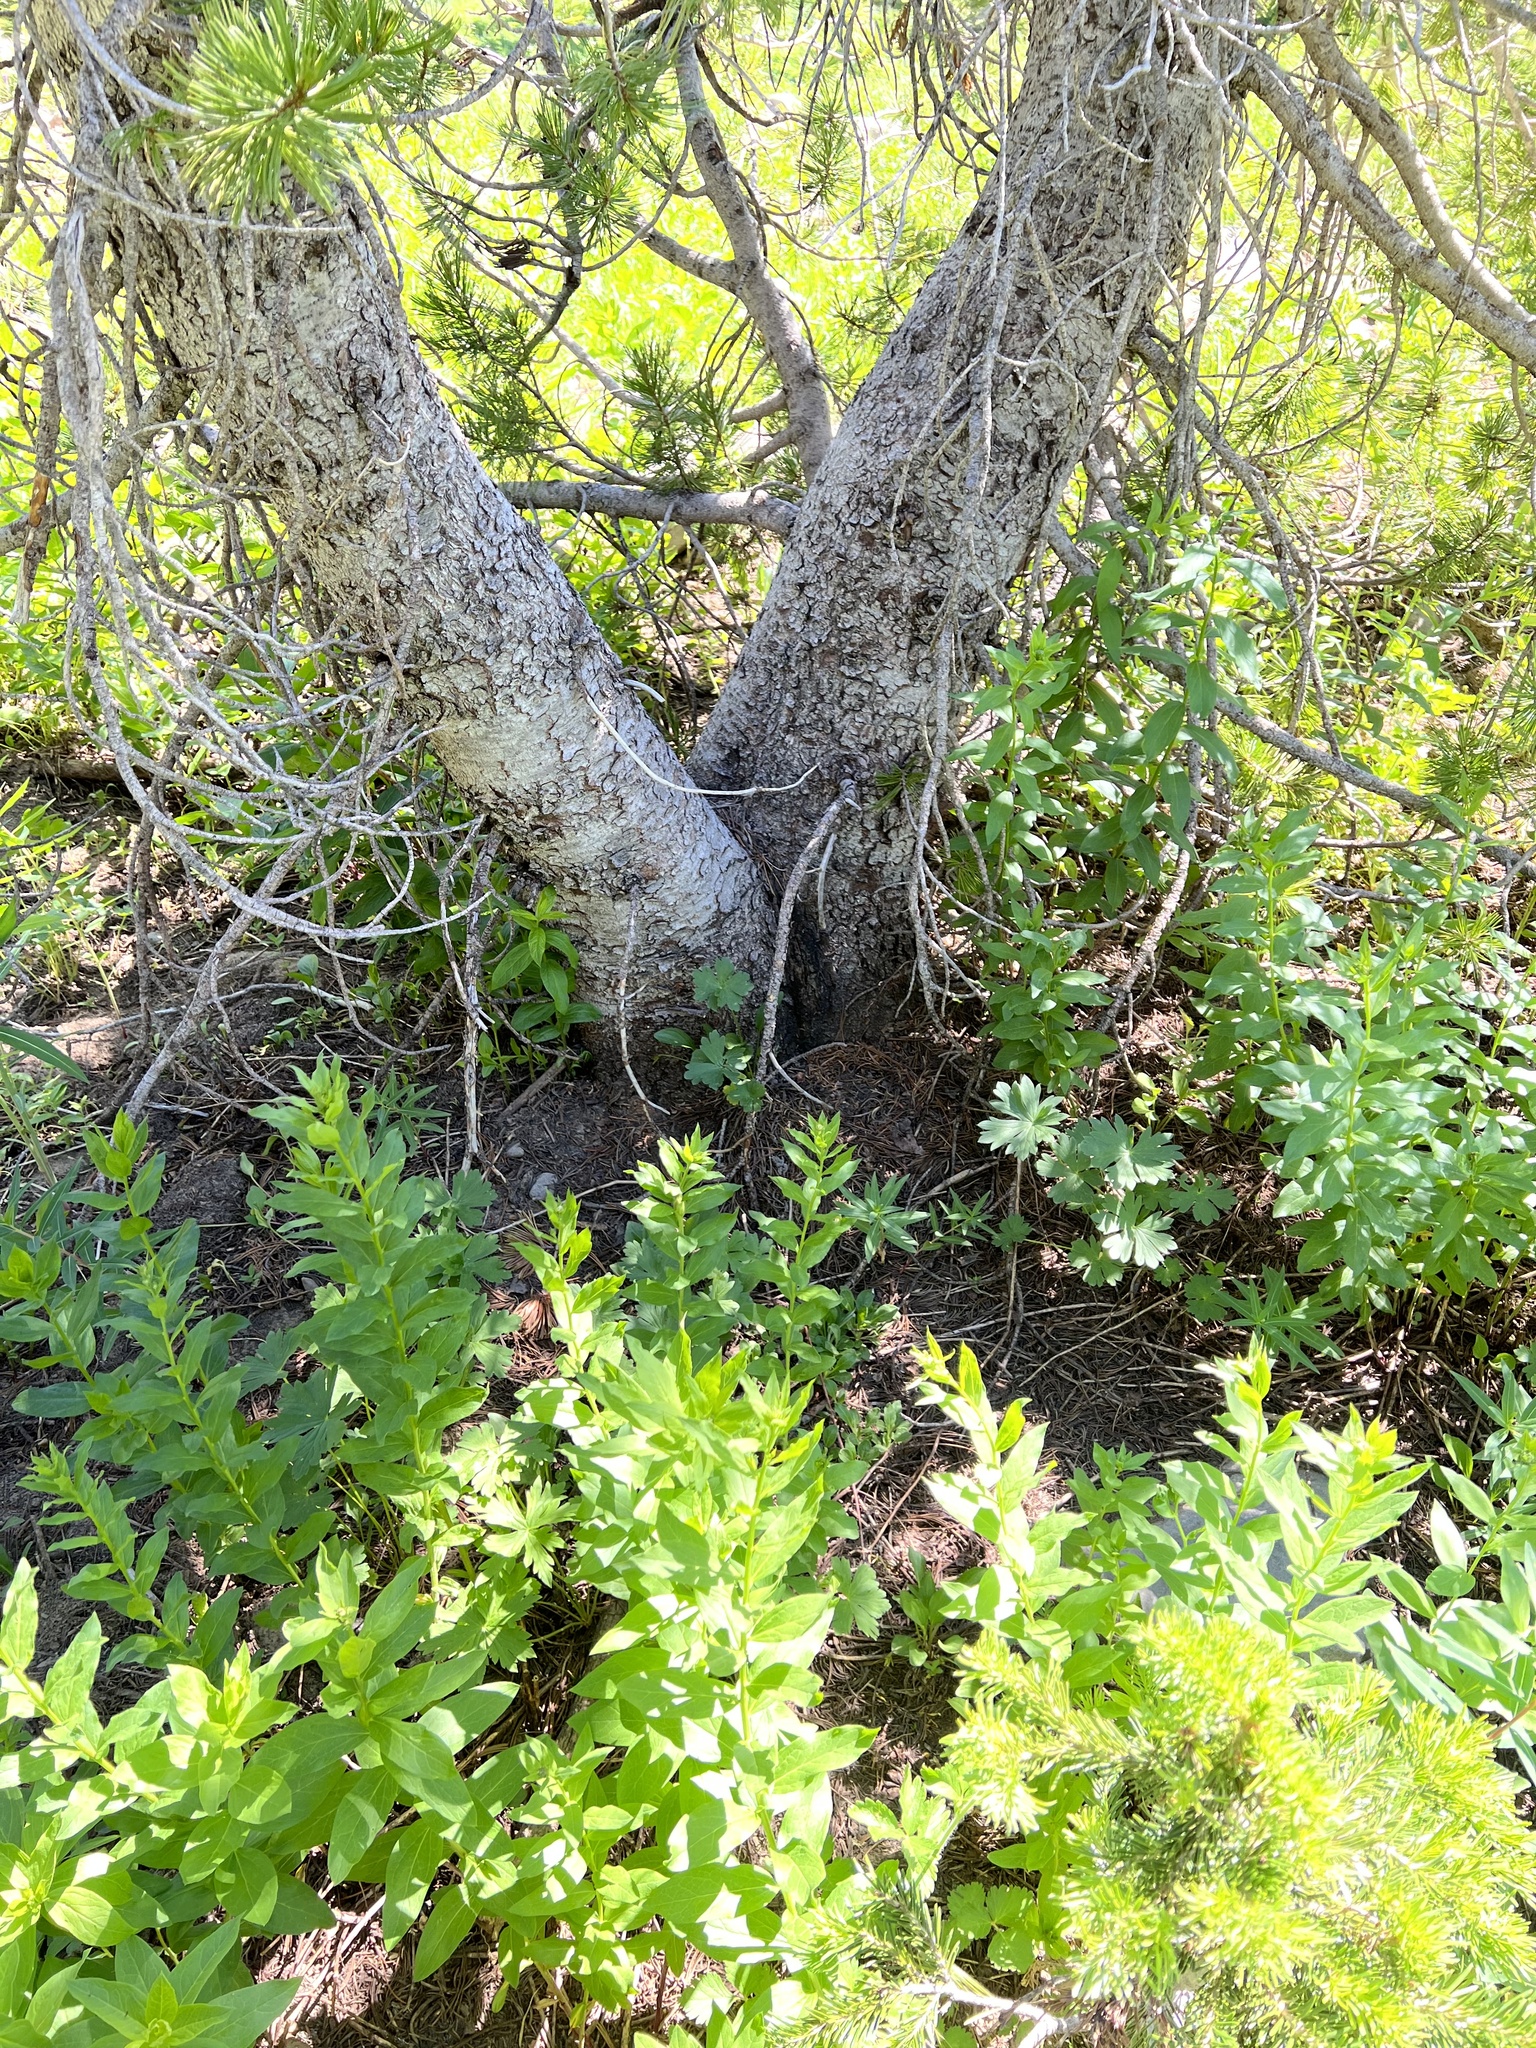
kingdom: Plantae
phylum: Tracheophyta
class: Pinopsida
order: Pinales
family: Pinaceae
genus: Pinus
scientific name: Pinus albicaulis
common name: Whitebark pine
